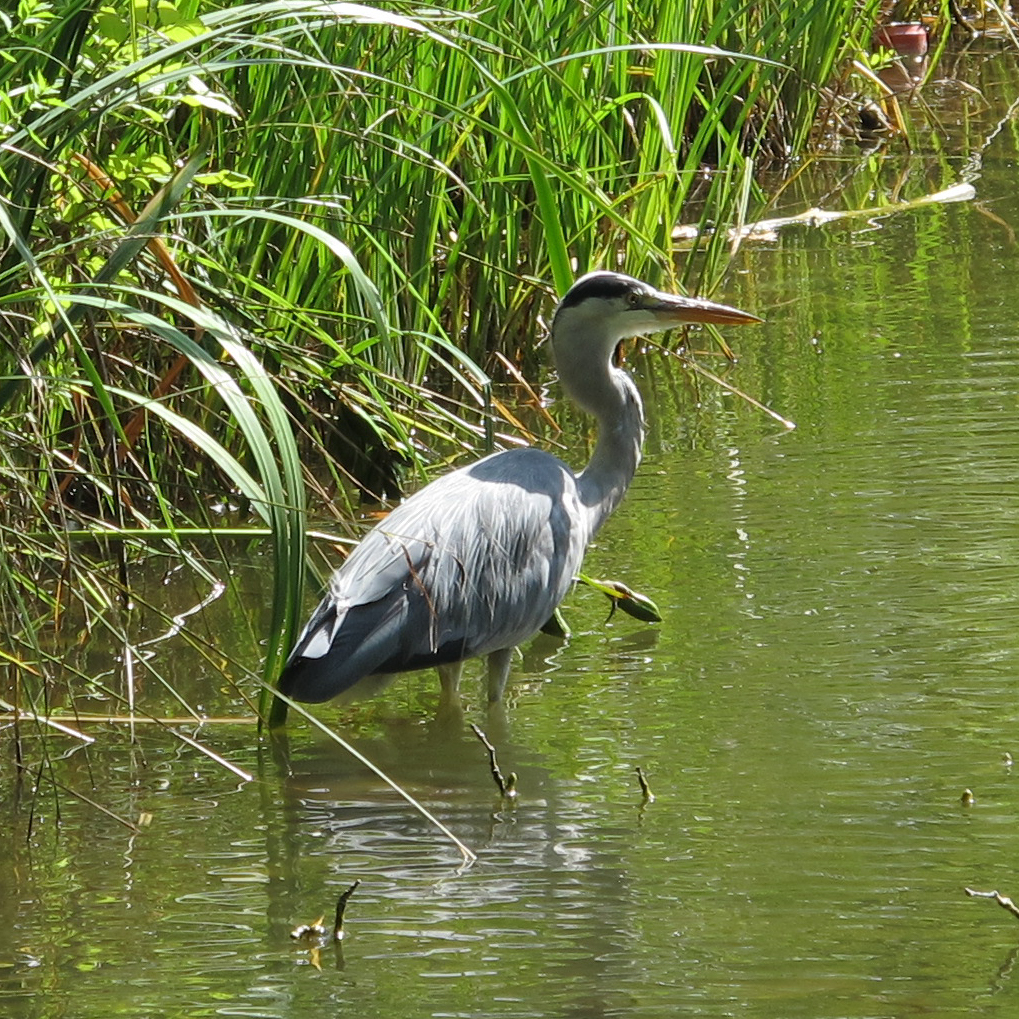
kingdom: Animalia
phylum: Chordata
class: Aves
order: Pelecaniformes
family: Ardeidae
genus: Ardea
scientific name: Ardea cinerea
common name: Grey heron
